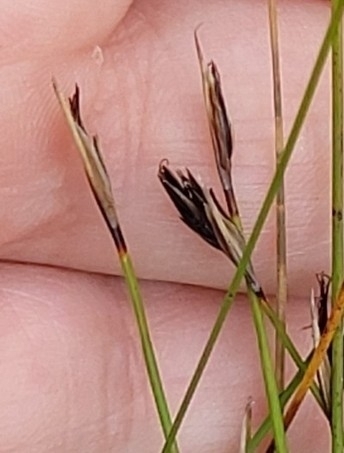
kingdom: Plantae
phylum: Tracheophyta
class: Liliopsida
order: Poales
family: Cyperaceae
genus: Schoenus
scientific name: Schoenus ferrugineus
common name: Brown bog-rush
